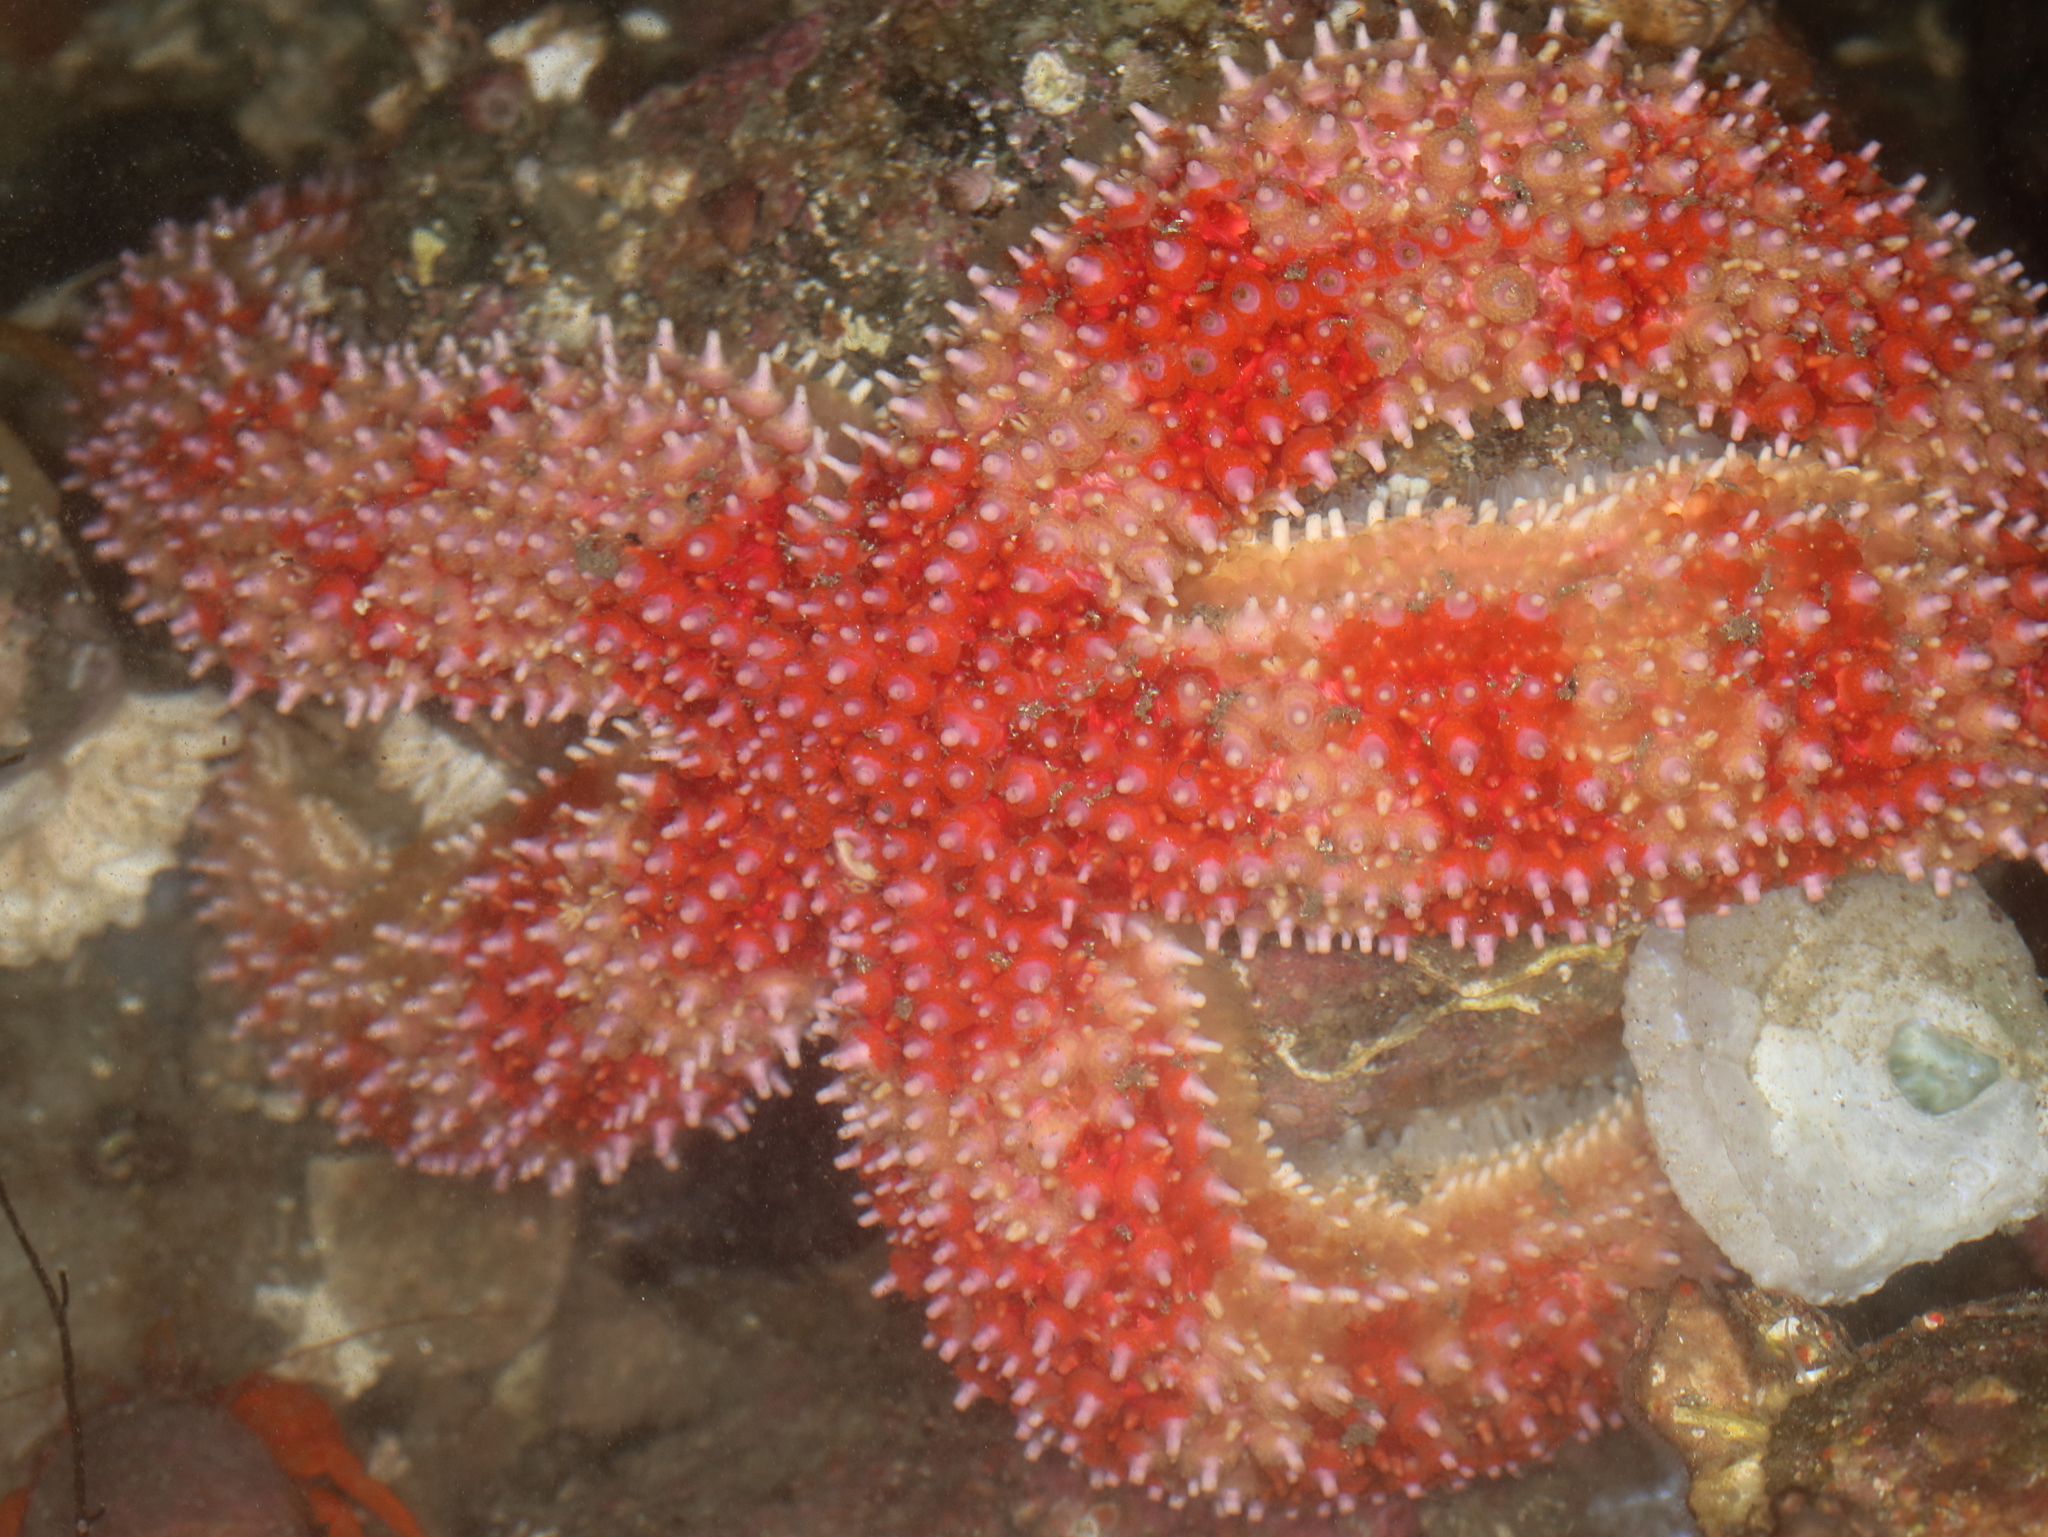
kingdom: Animalia
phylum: Echinodermata
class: Asteroidea
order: Forcipulatida
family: Asteriidae
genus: Orthasterias
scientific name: Orthasterias koehleri
